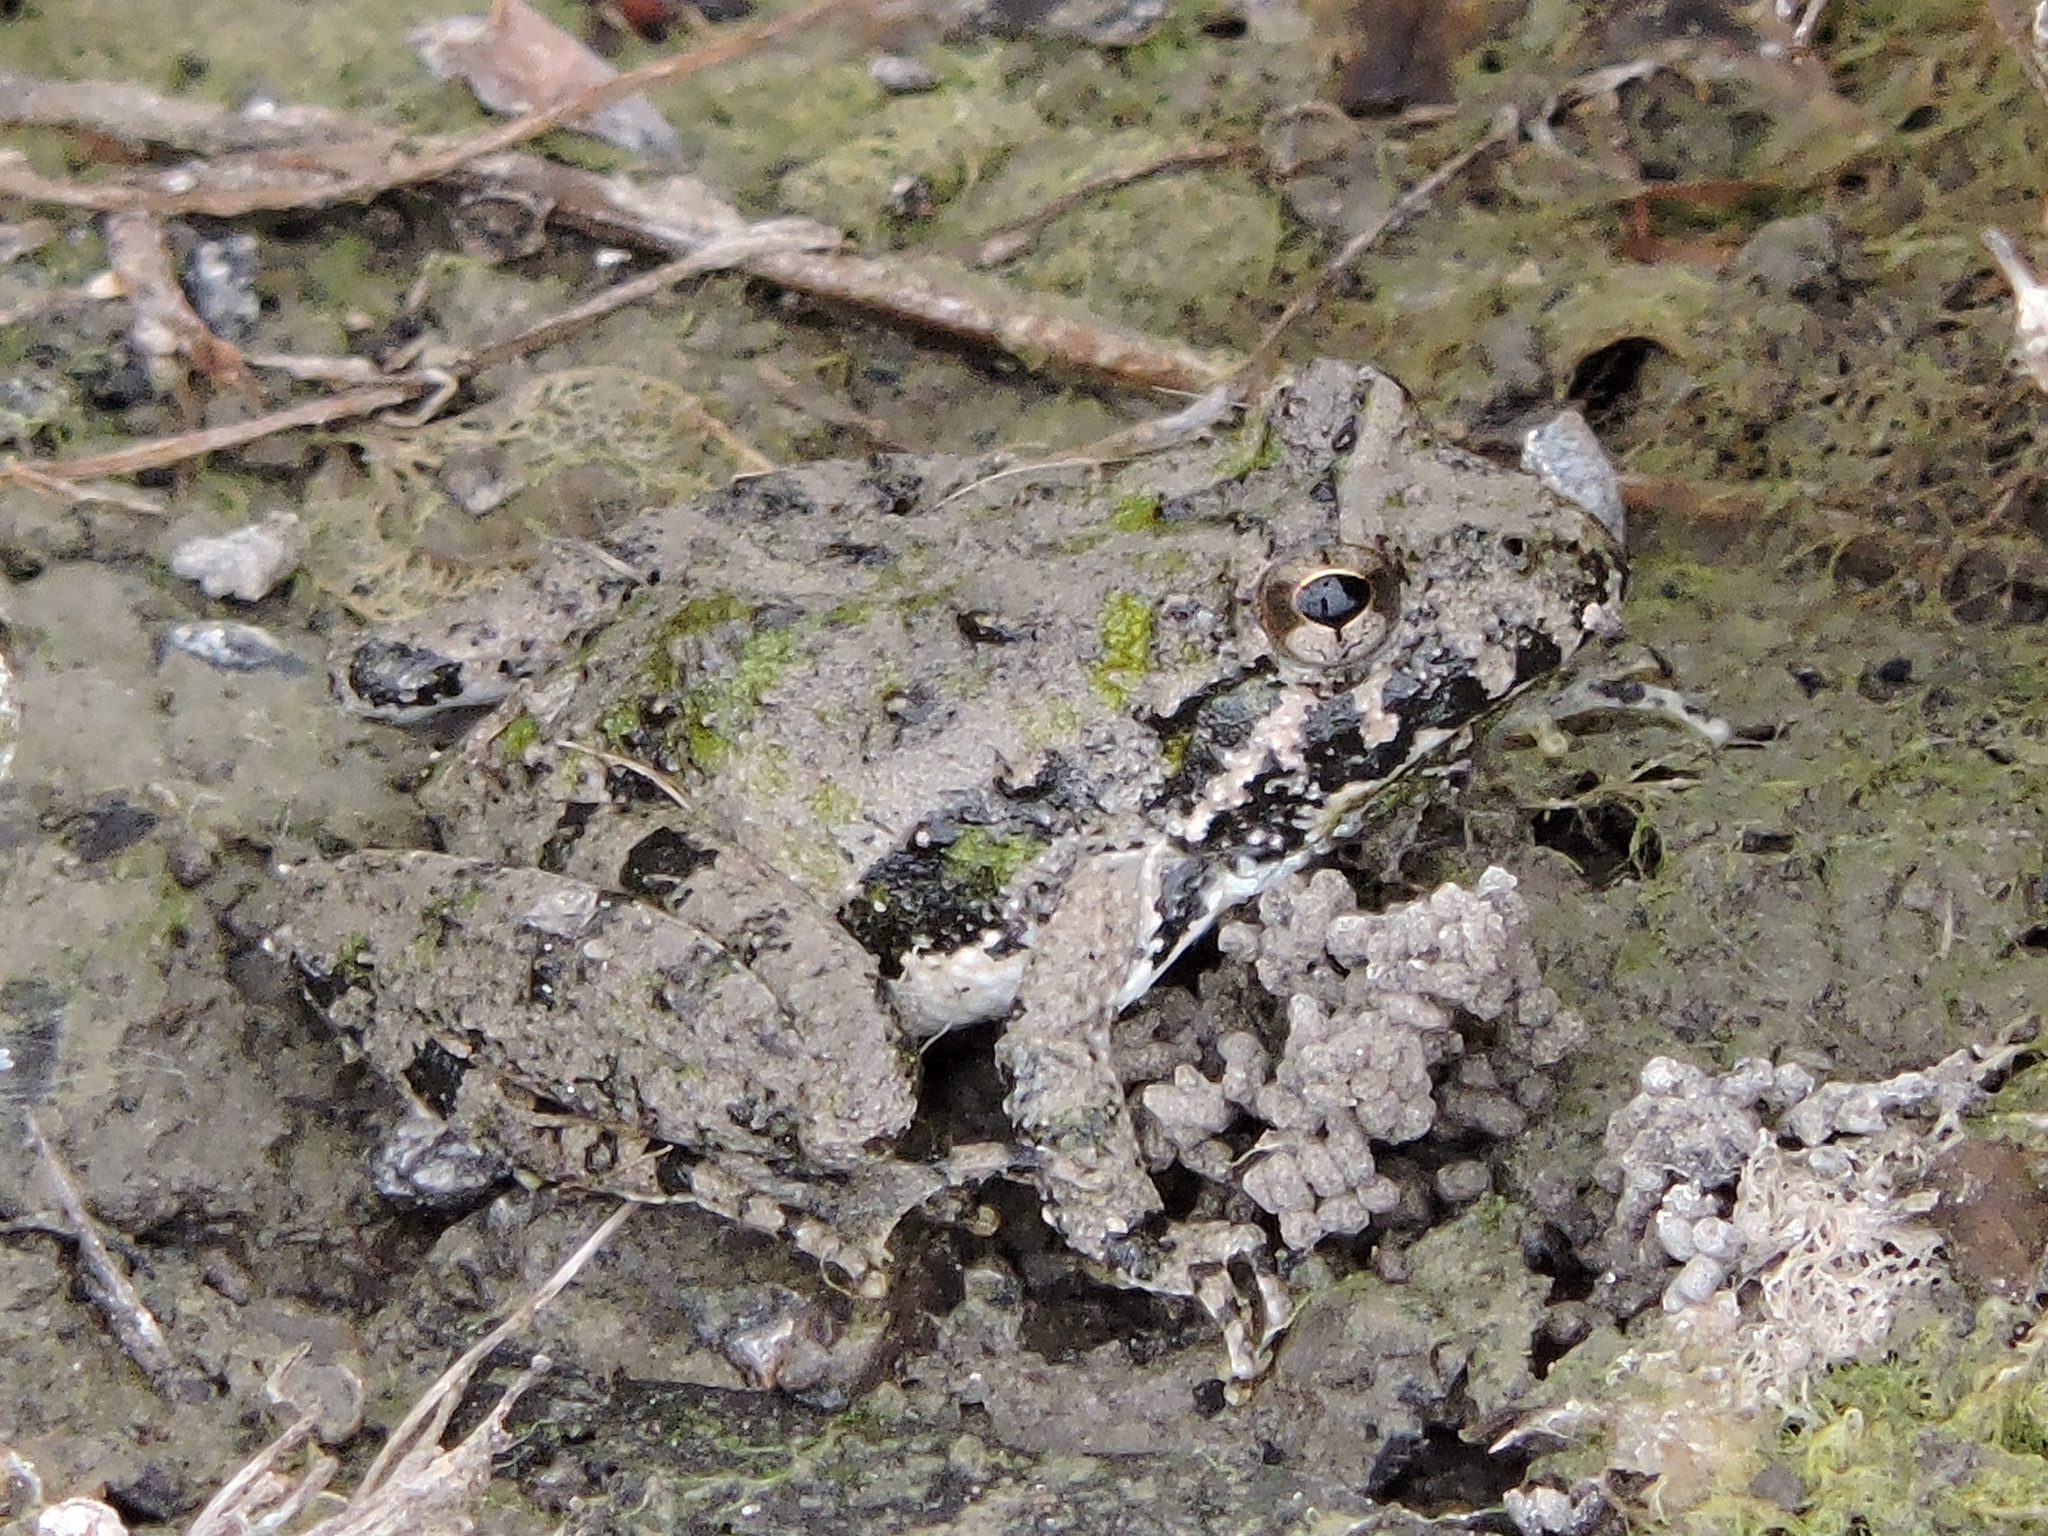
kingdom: Animalia
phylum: Chordata
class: Amphibia
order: Anura
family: Hylidae
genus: Acris
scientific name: Acris blanchardi
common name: Blanchard's cricket frog
